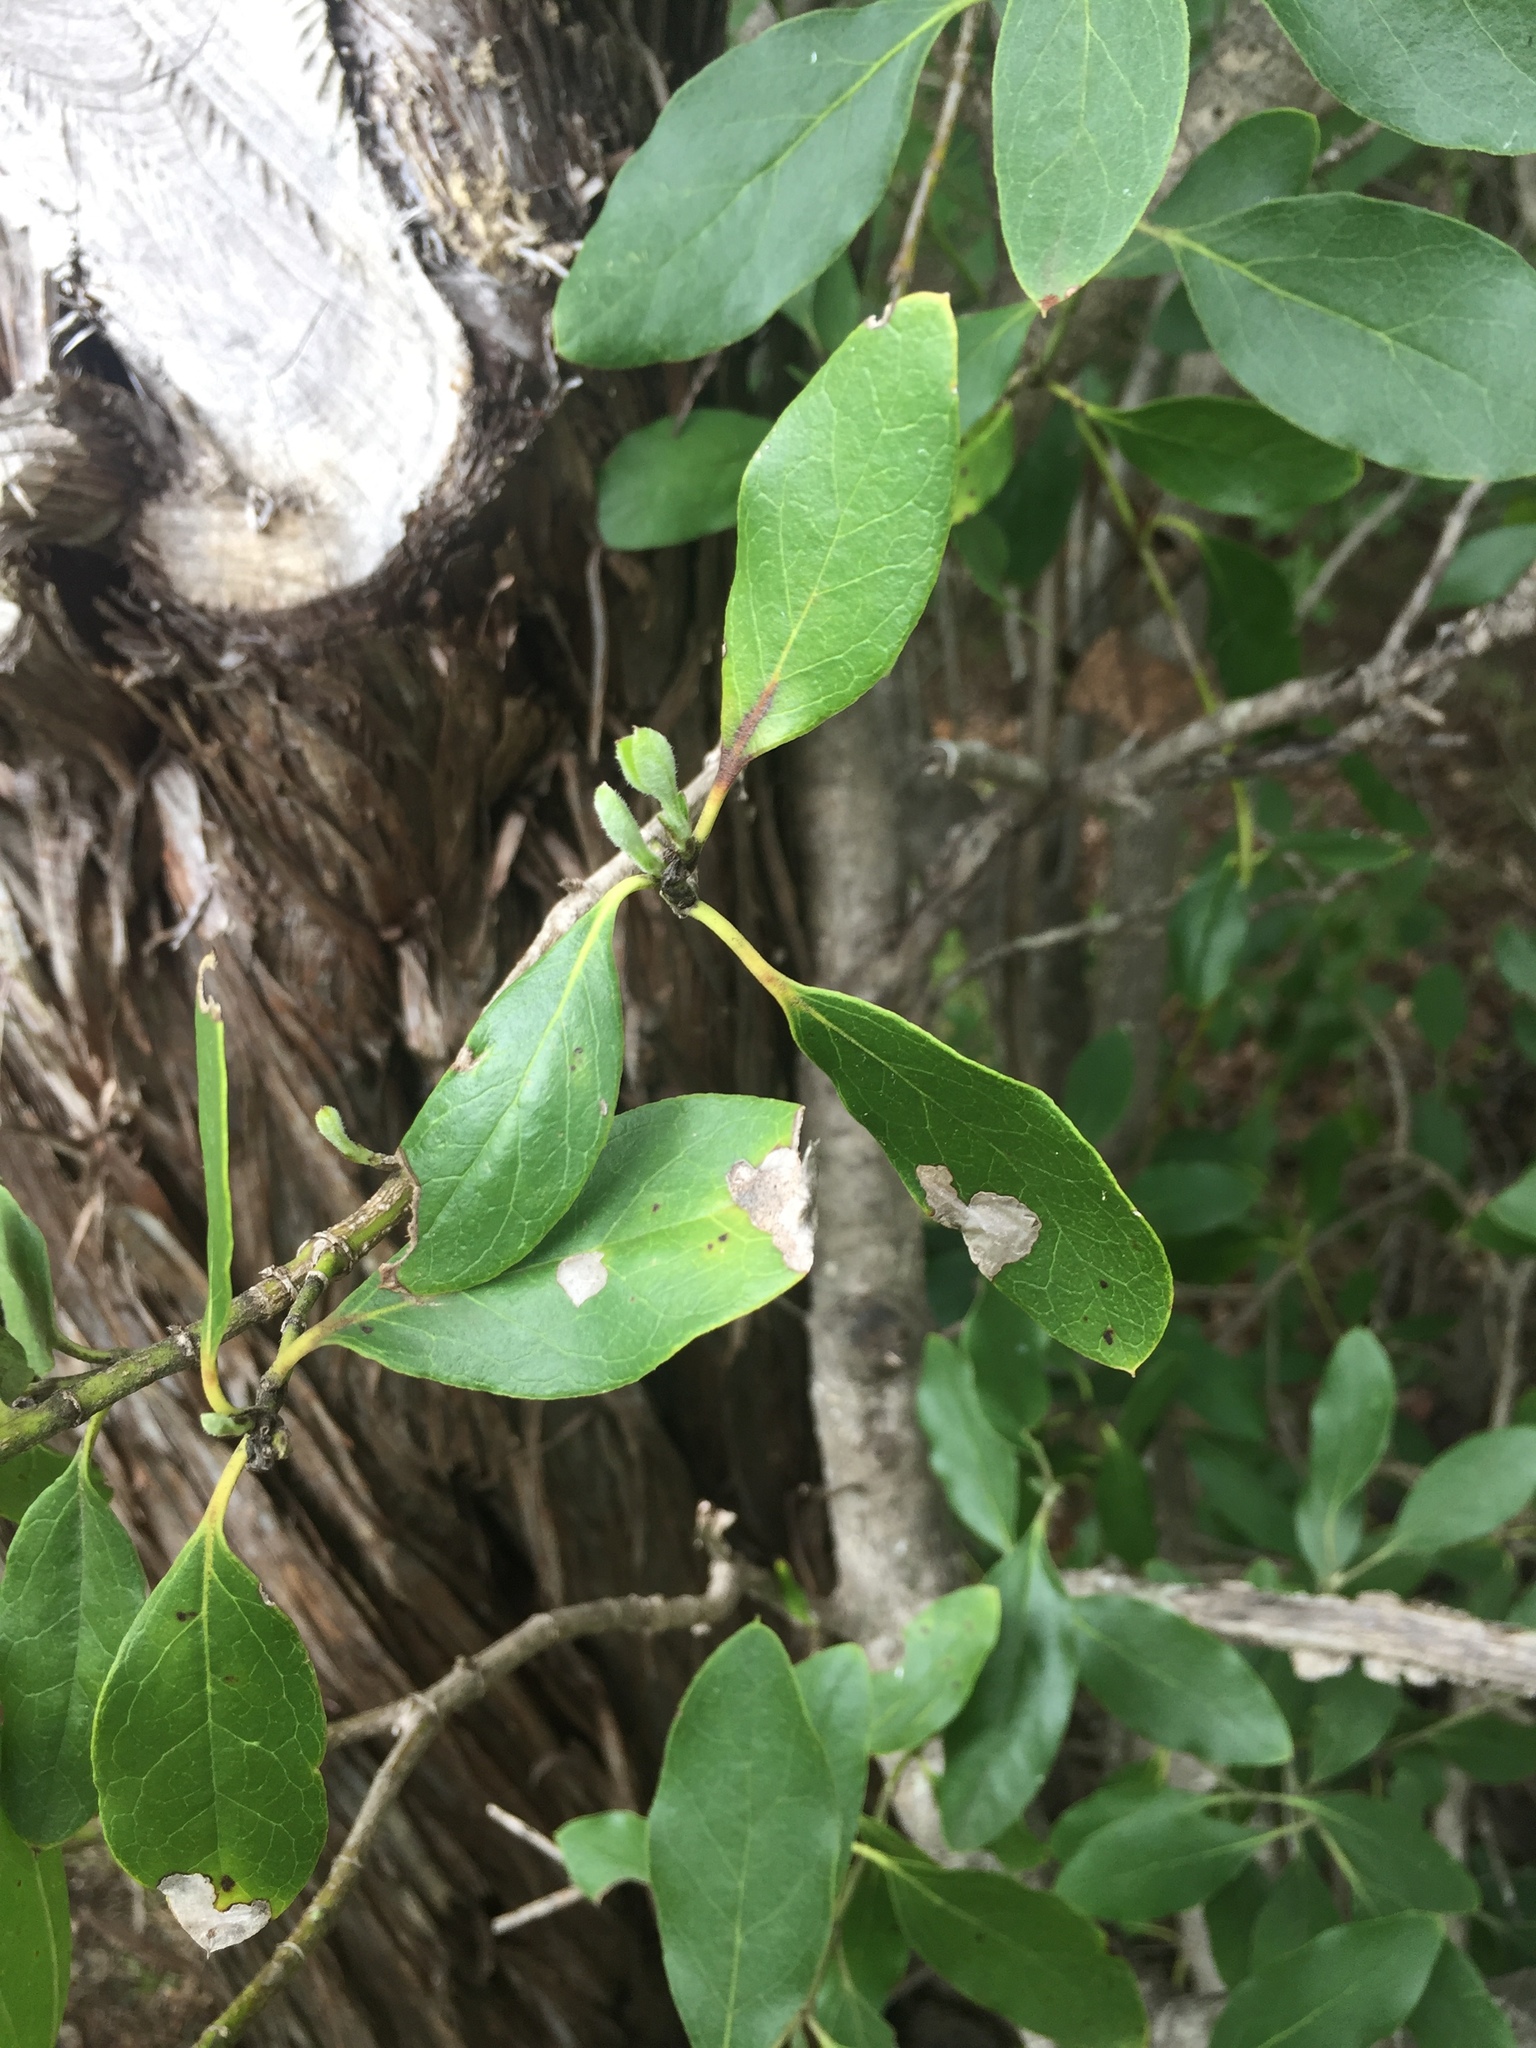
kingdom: Plantae
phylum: Tracheophyta
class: Magnoliopsida
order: Garryales
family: Garryaceae
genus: Garrya
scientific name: Garrya lindheimeri
